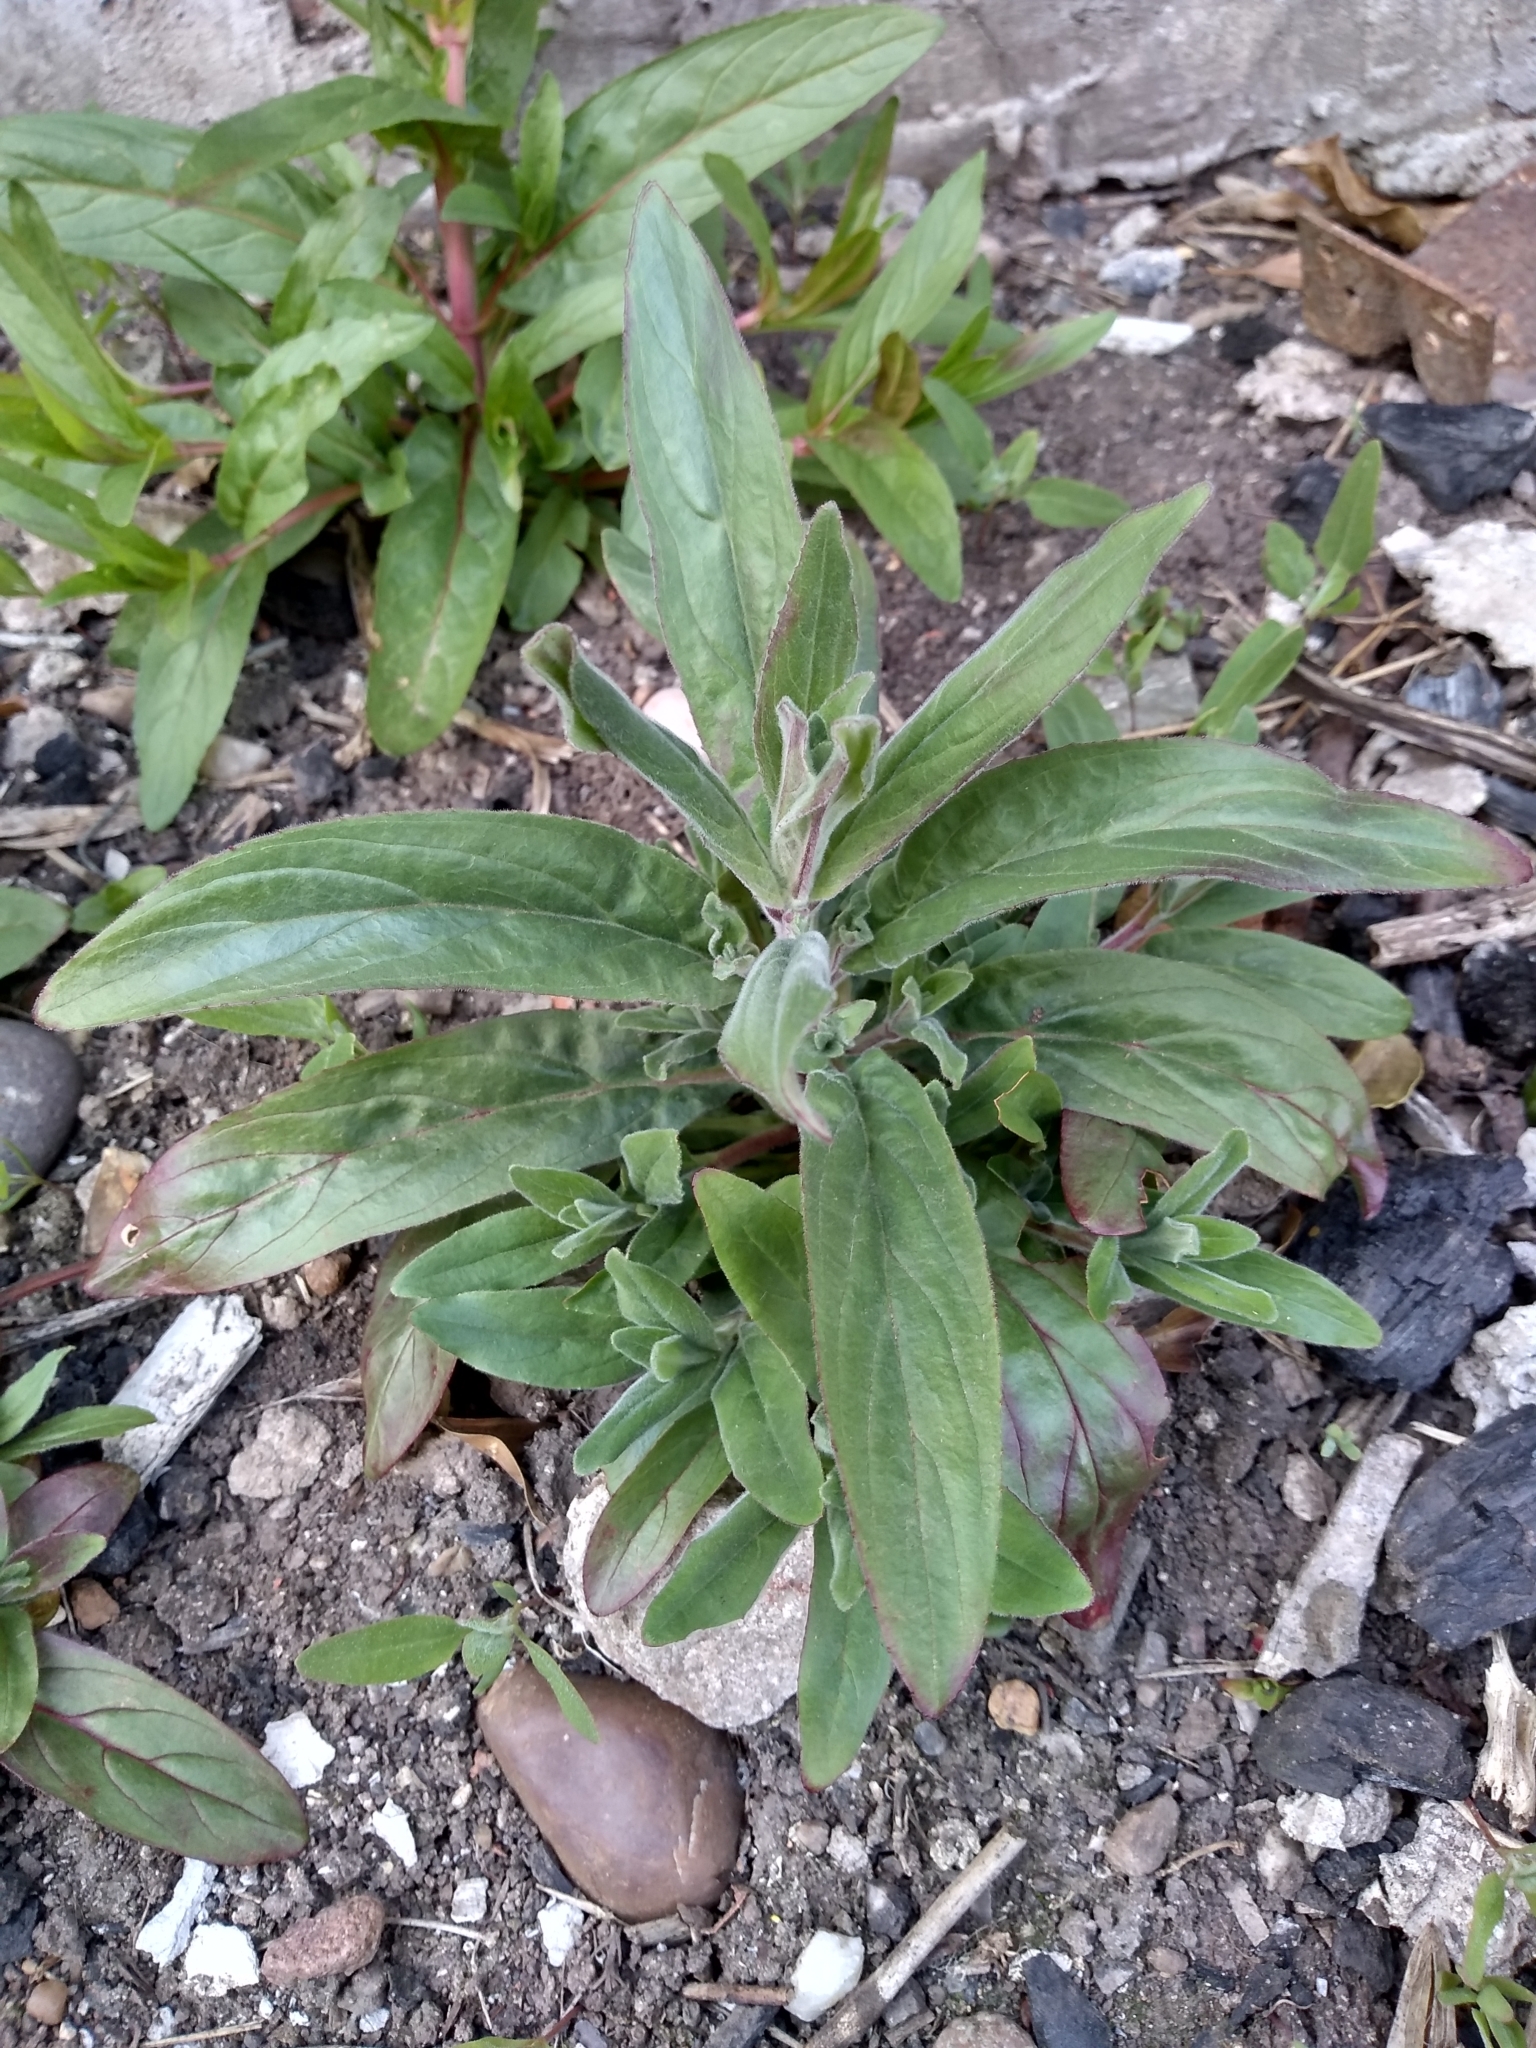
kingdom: Plantae
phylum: Tracheophyta
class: Magnoliopsida
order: Myrtales
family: Onagraceae
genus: Epilobium
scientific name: Epilobium parviflorum
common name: Hoary willowherb
